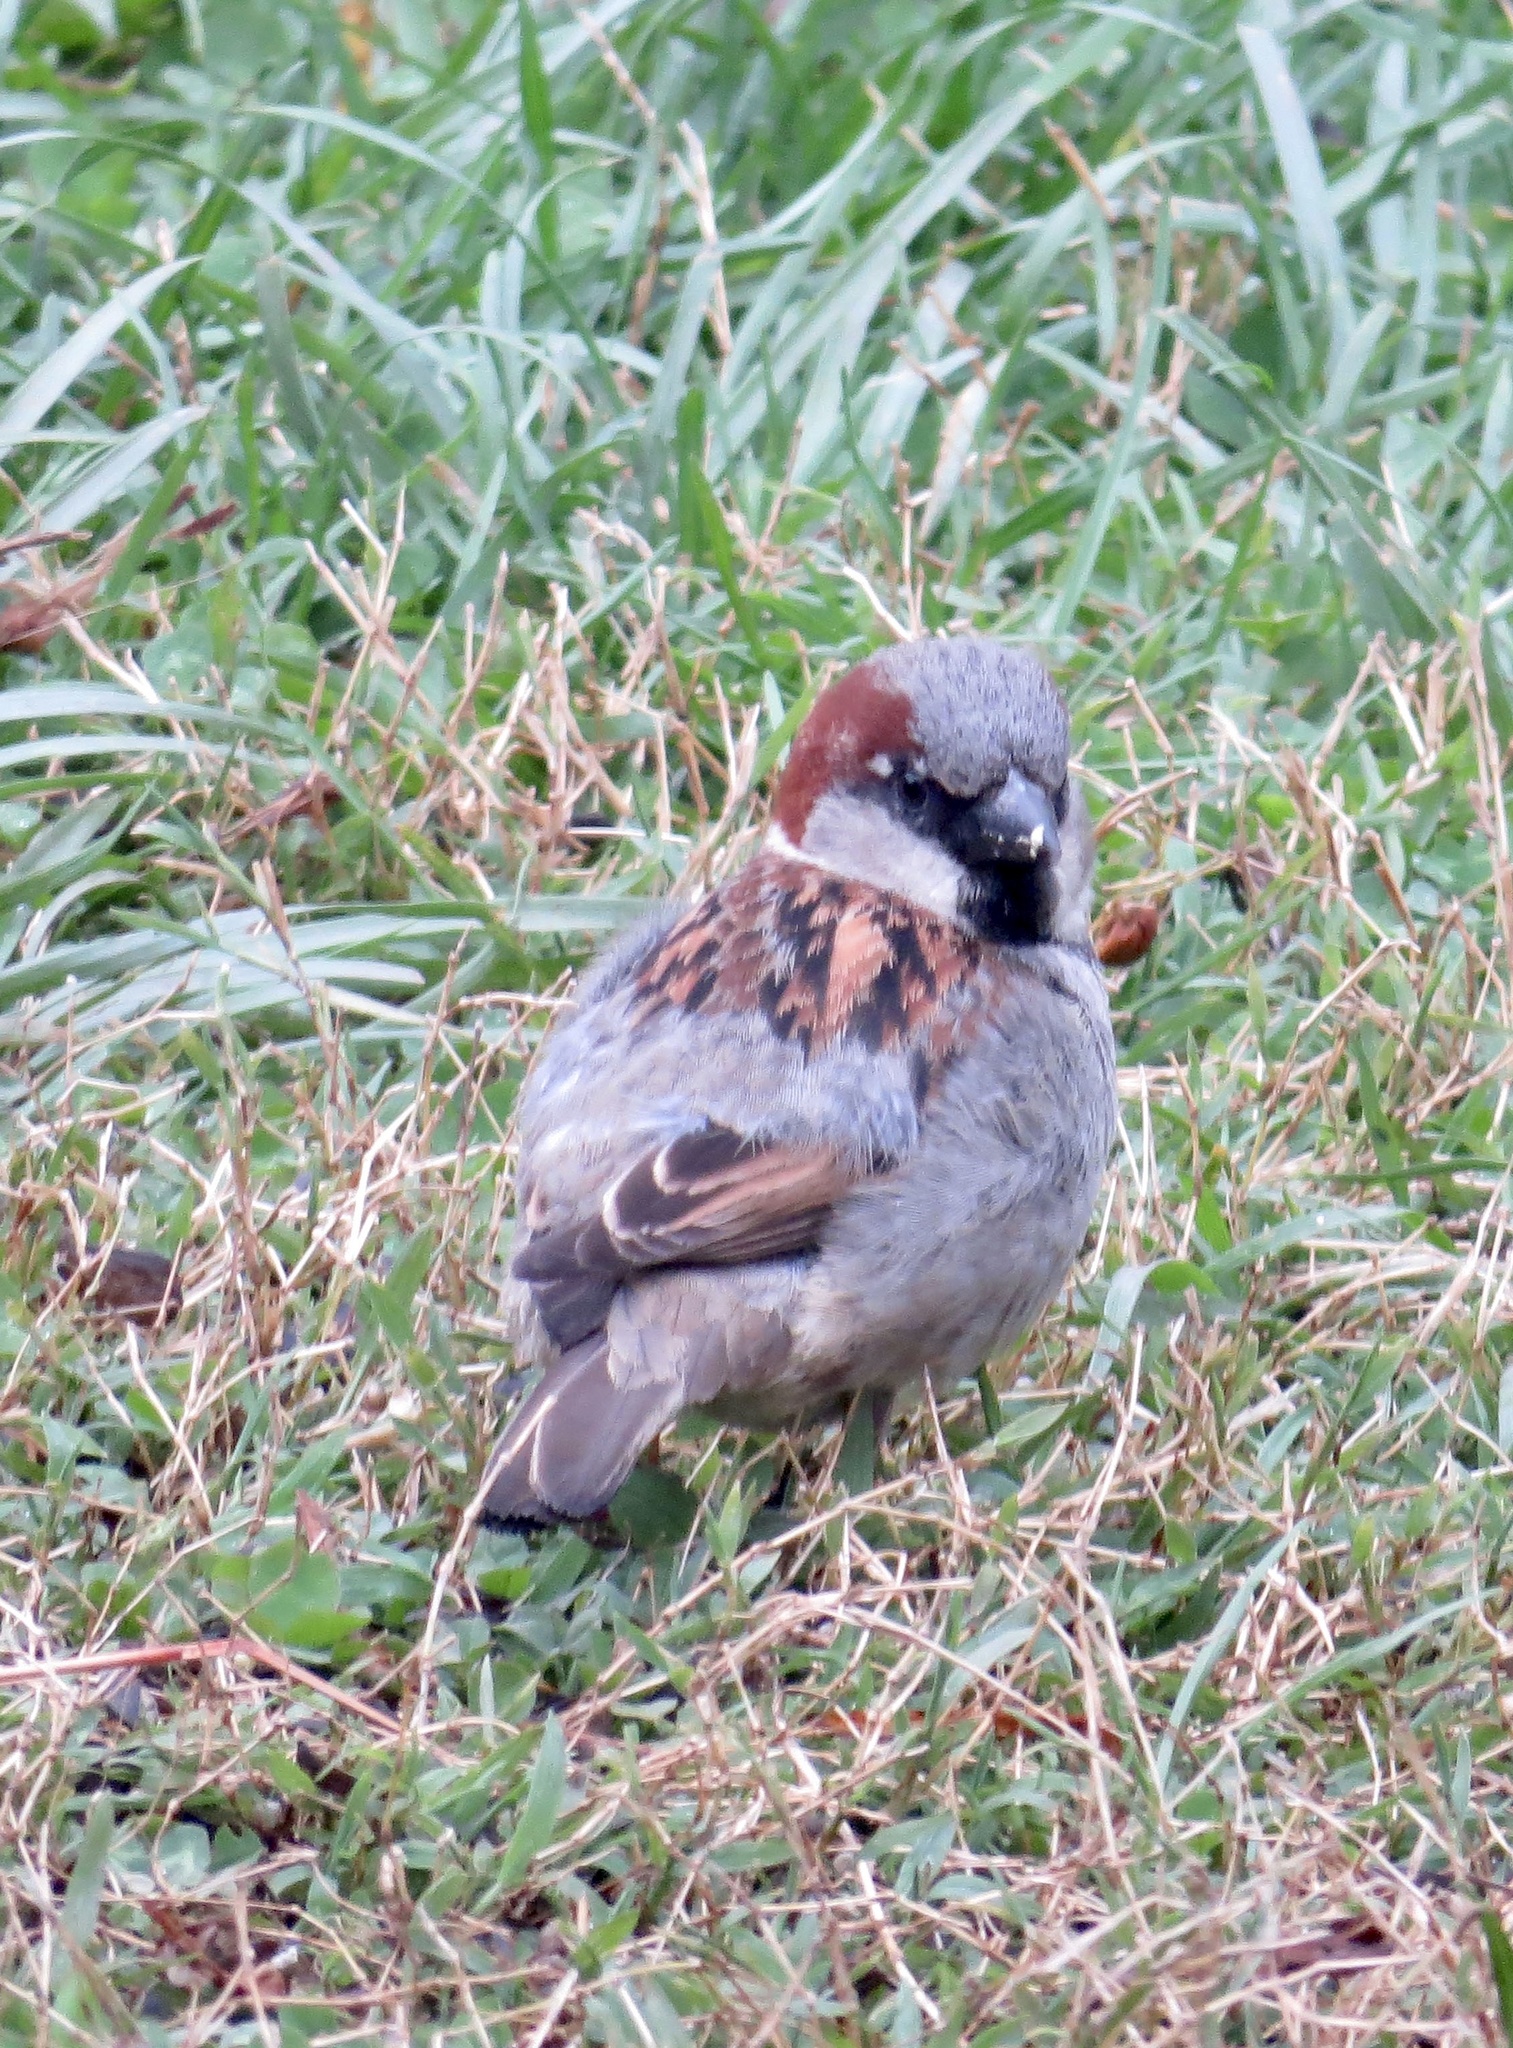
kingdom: Animalia
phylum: Chordata
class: Aves
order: Passeriformes
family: Passeridae
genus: Passer
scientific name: Passer domesticus
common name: House sparrow
